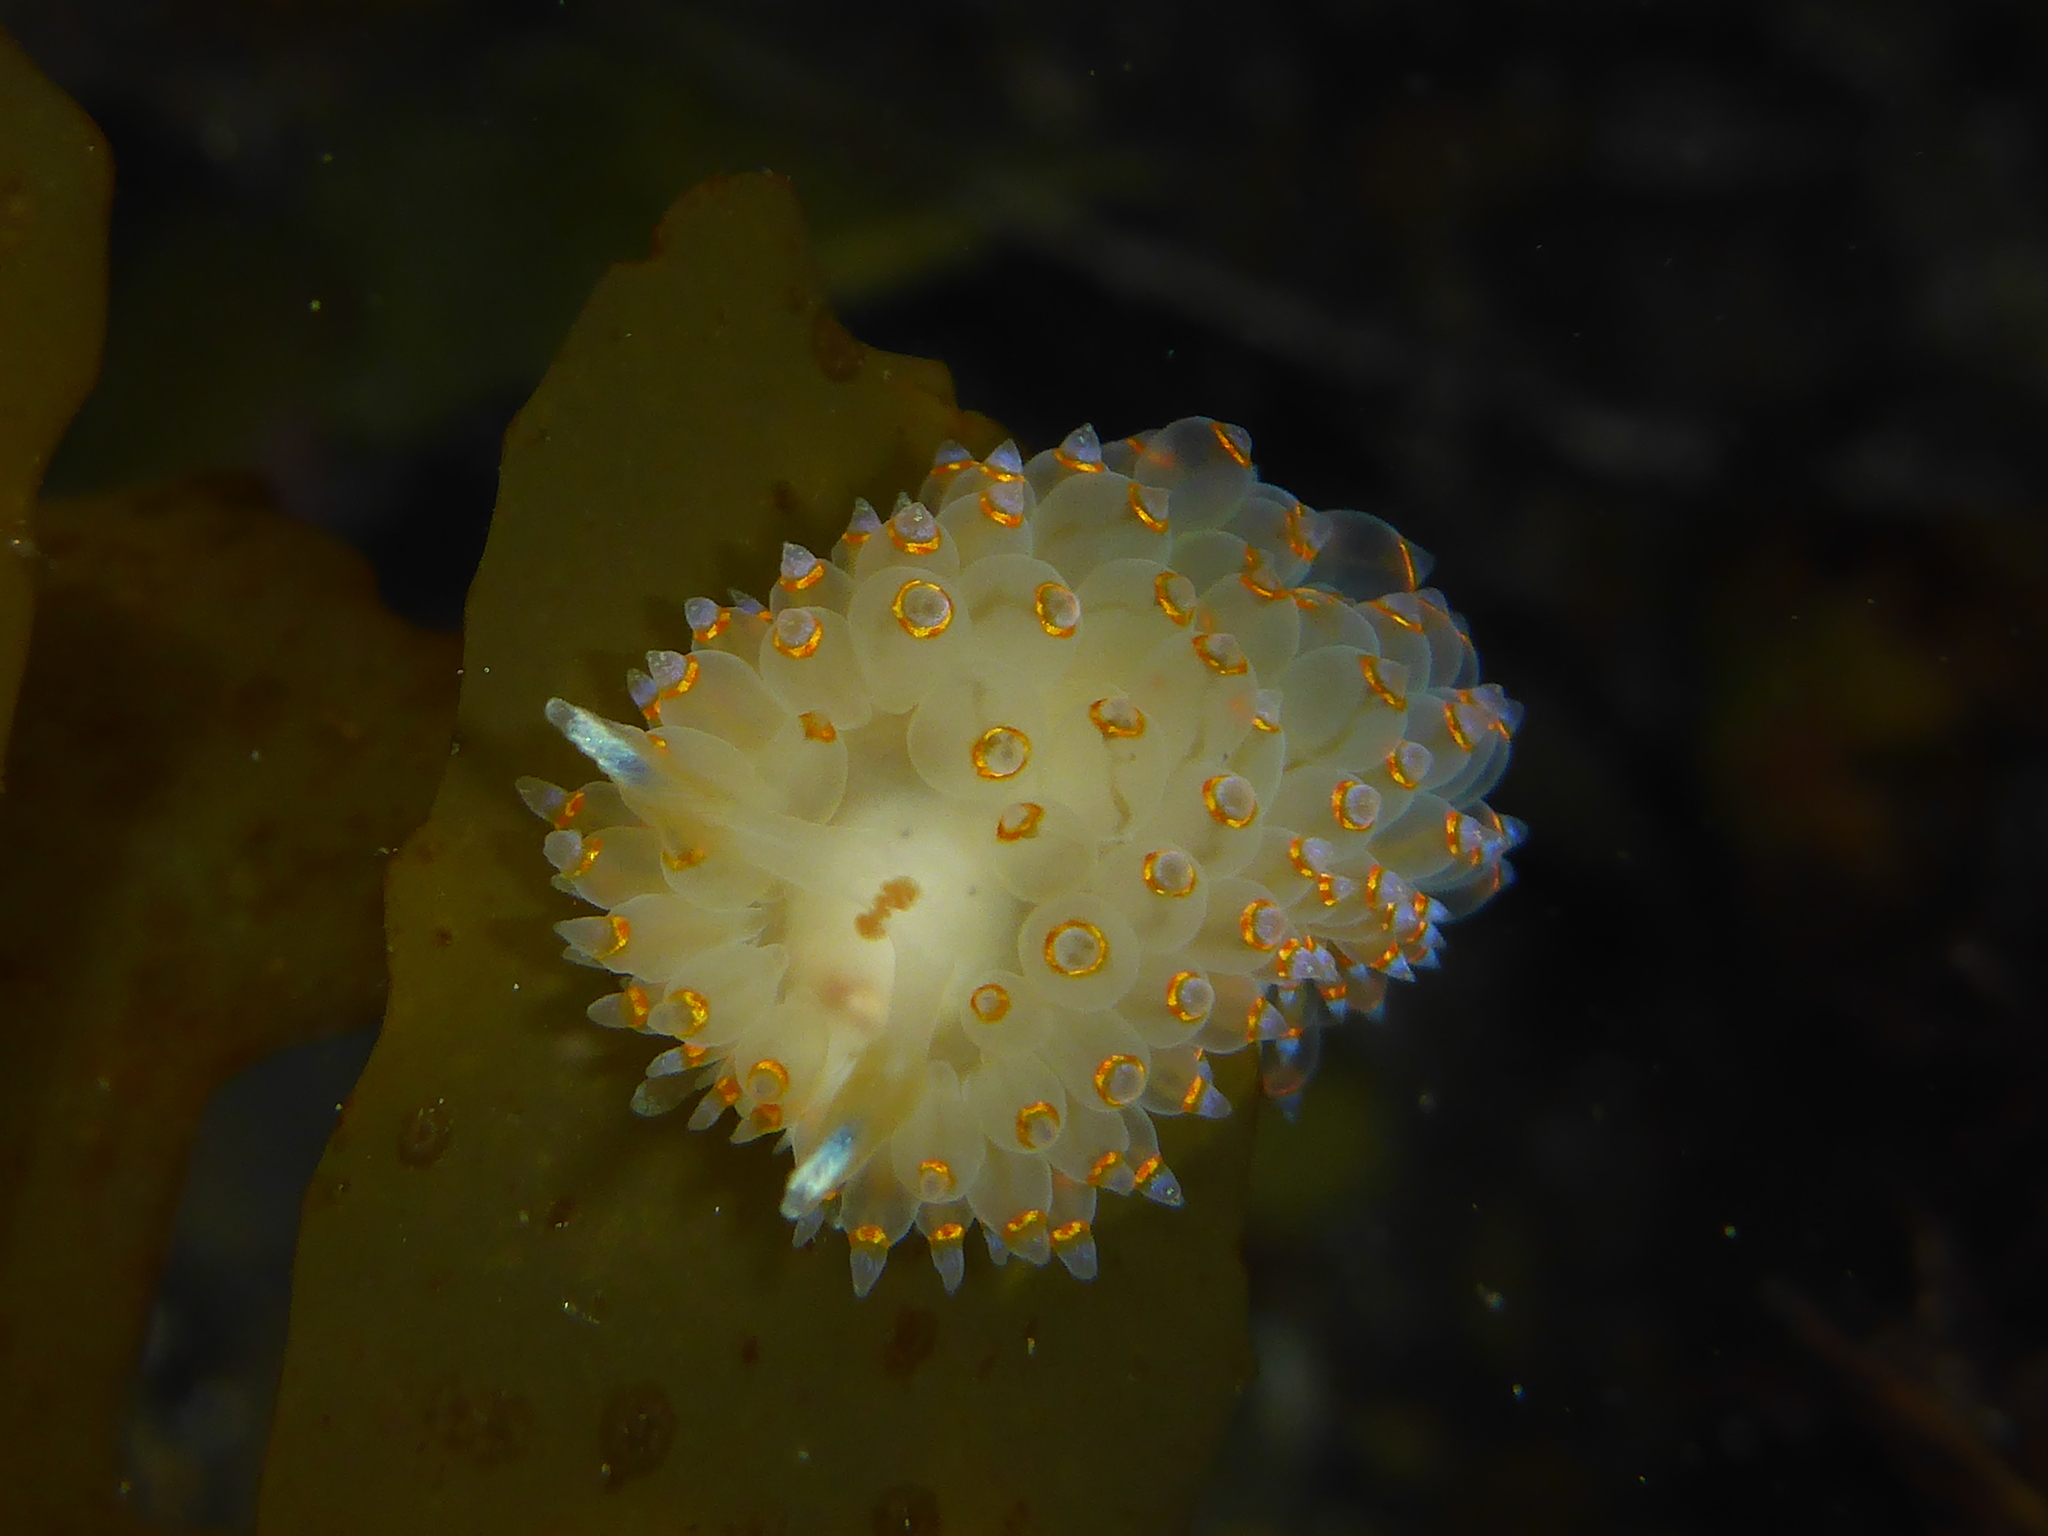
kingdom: Animalia
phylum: Mollusca
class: Gastropoda
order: Nudibranchia
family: Janolidae
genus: Antiopella
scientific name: Antiopella barbarensis
